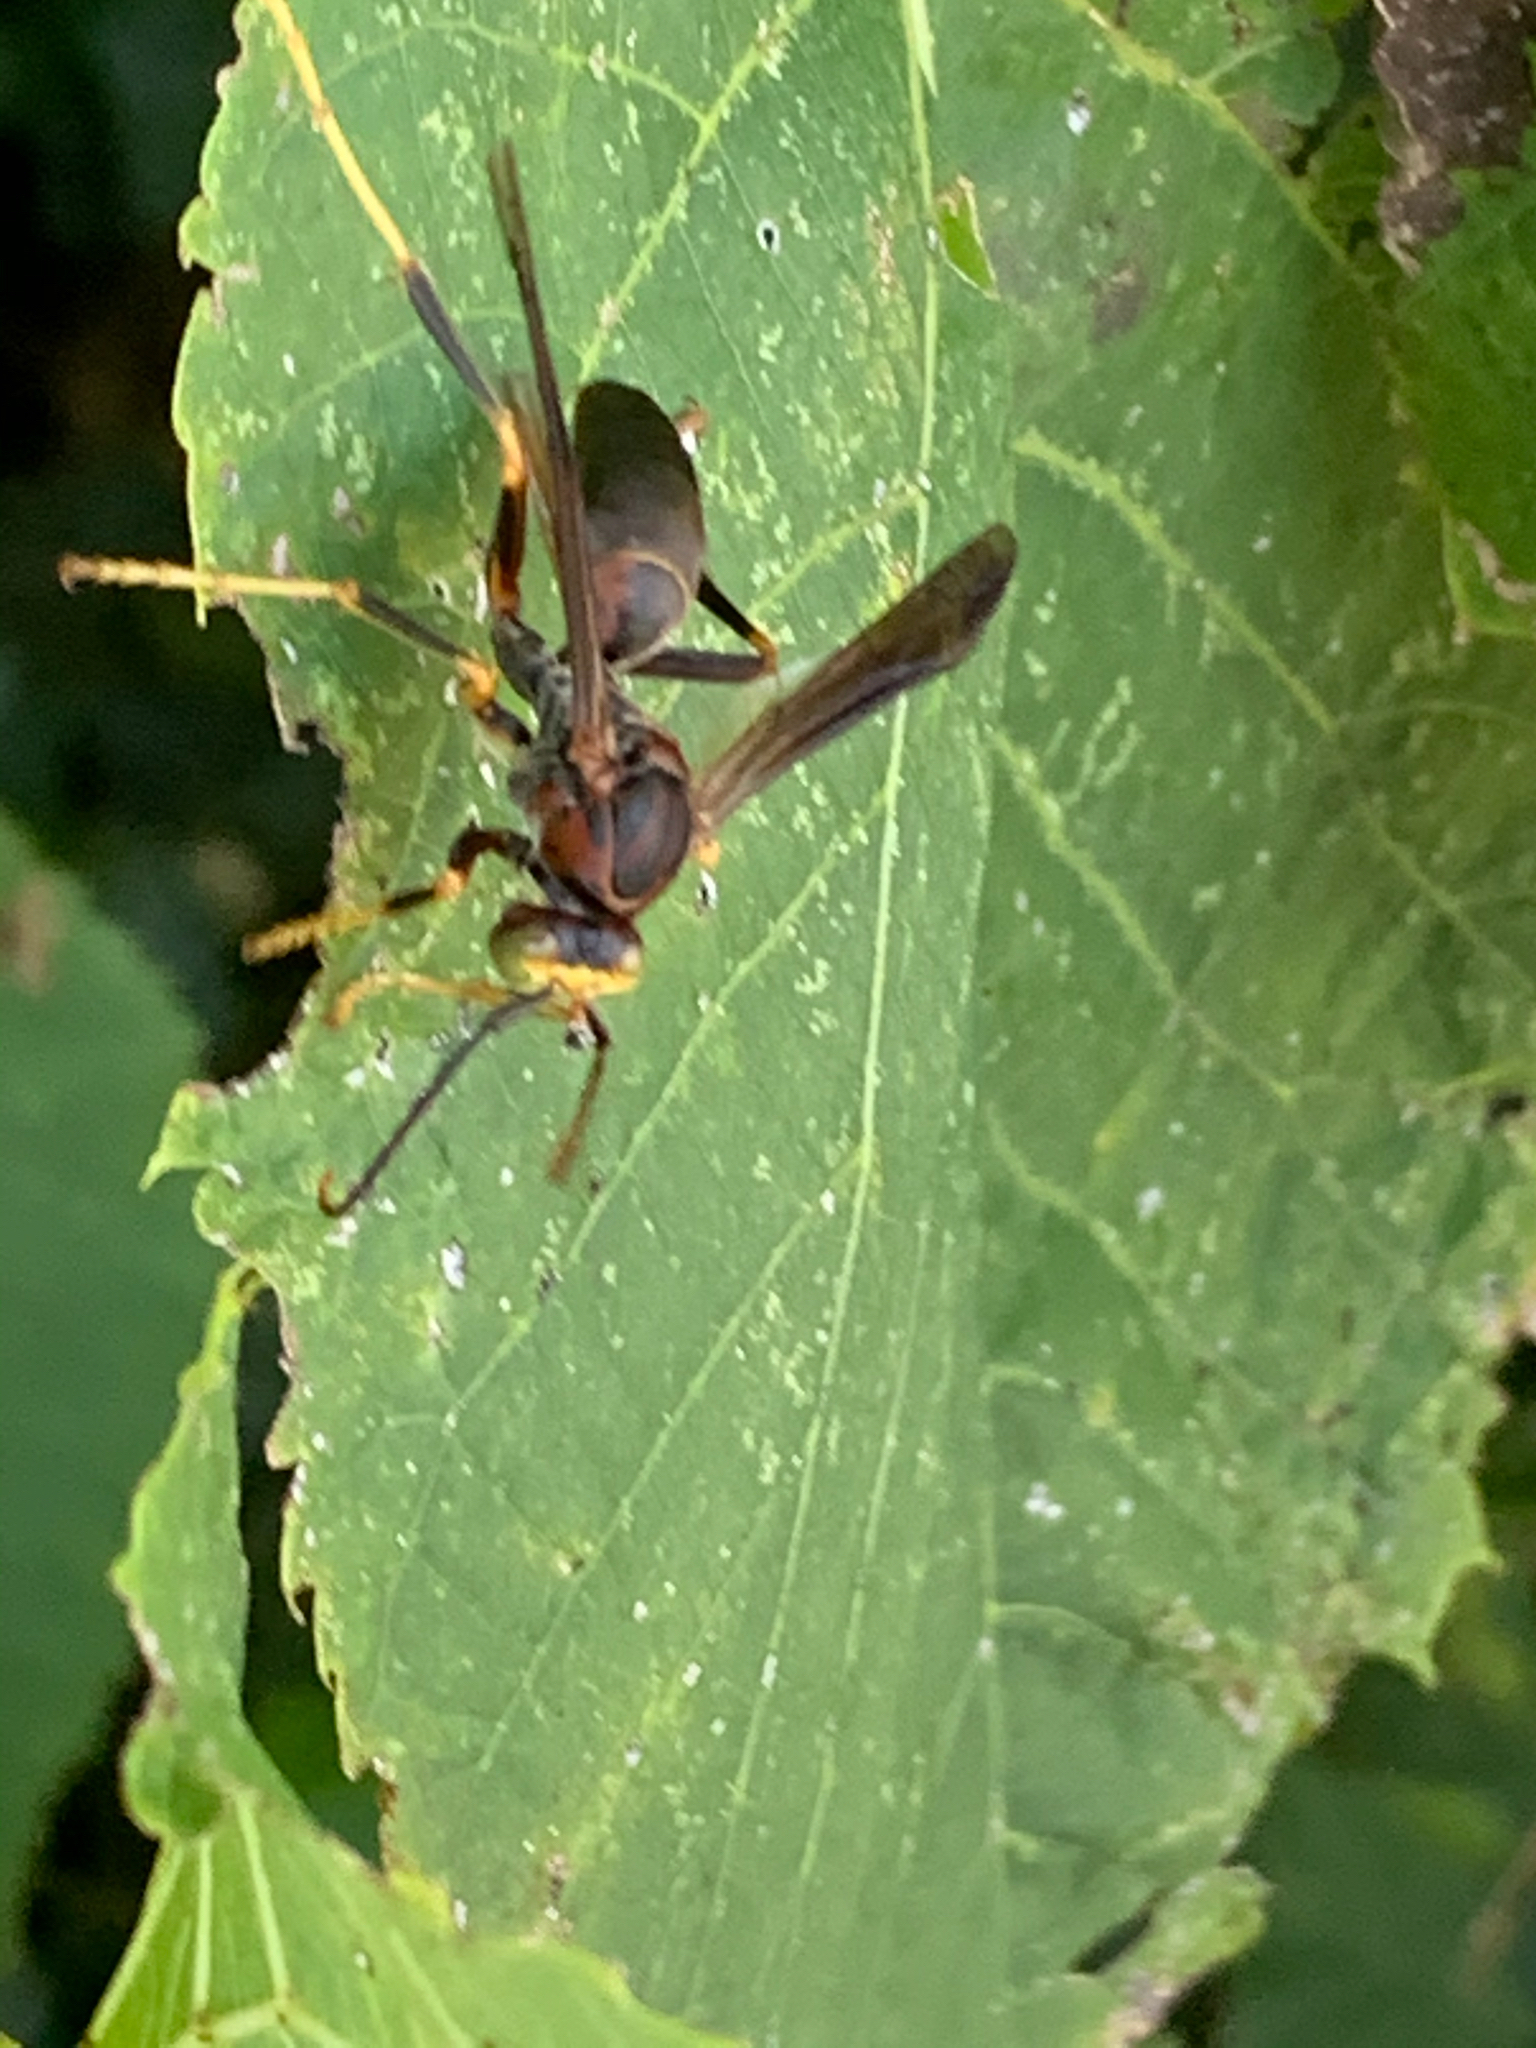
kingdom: Animalia
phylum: Arthropoda
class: Insecta
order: Hymenoptera
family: Eumenidae
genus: Polistes
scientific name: Polistes metricus
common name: Metric paper wasp
